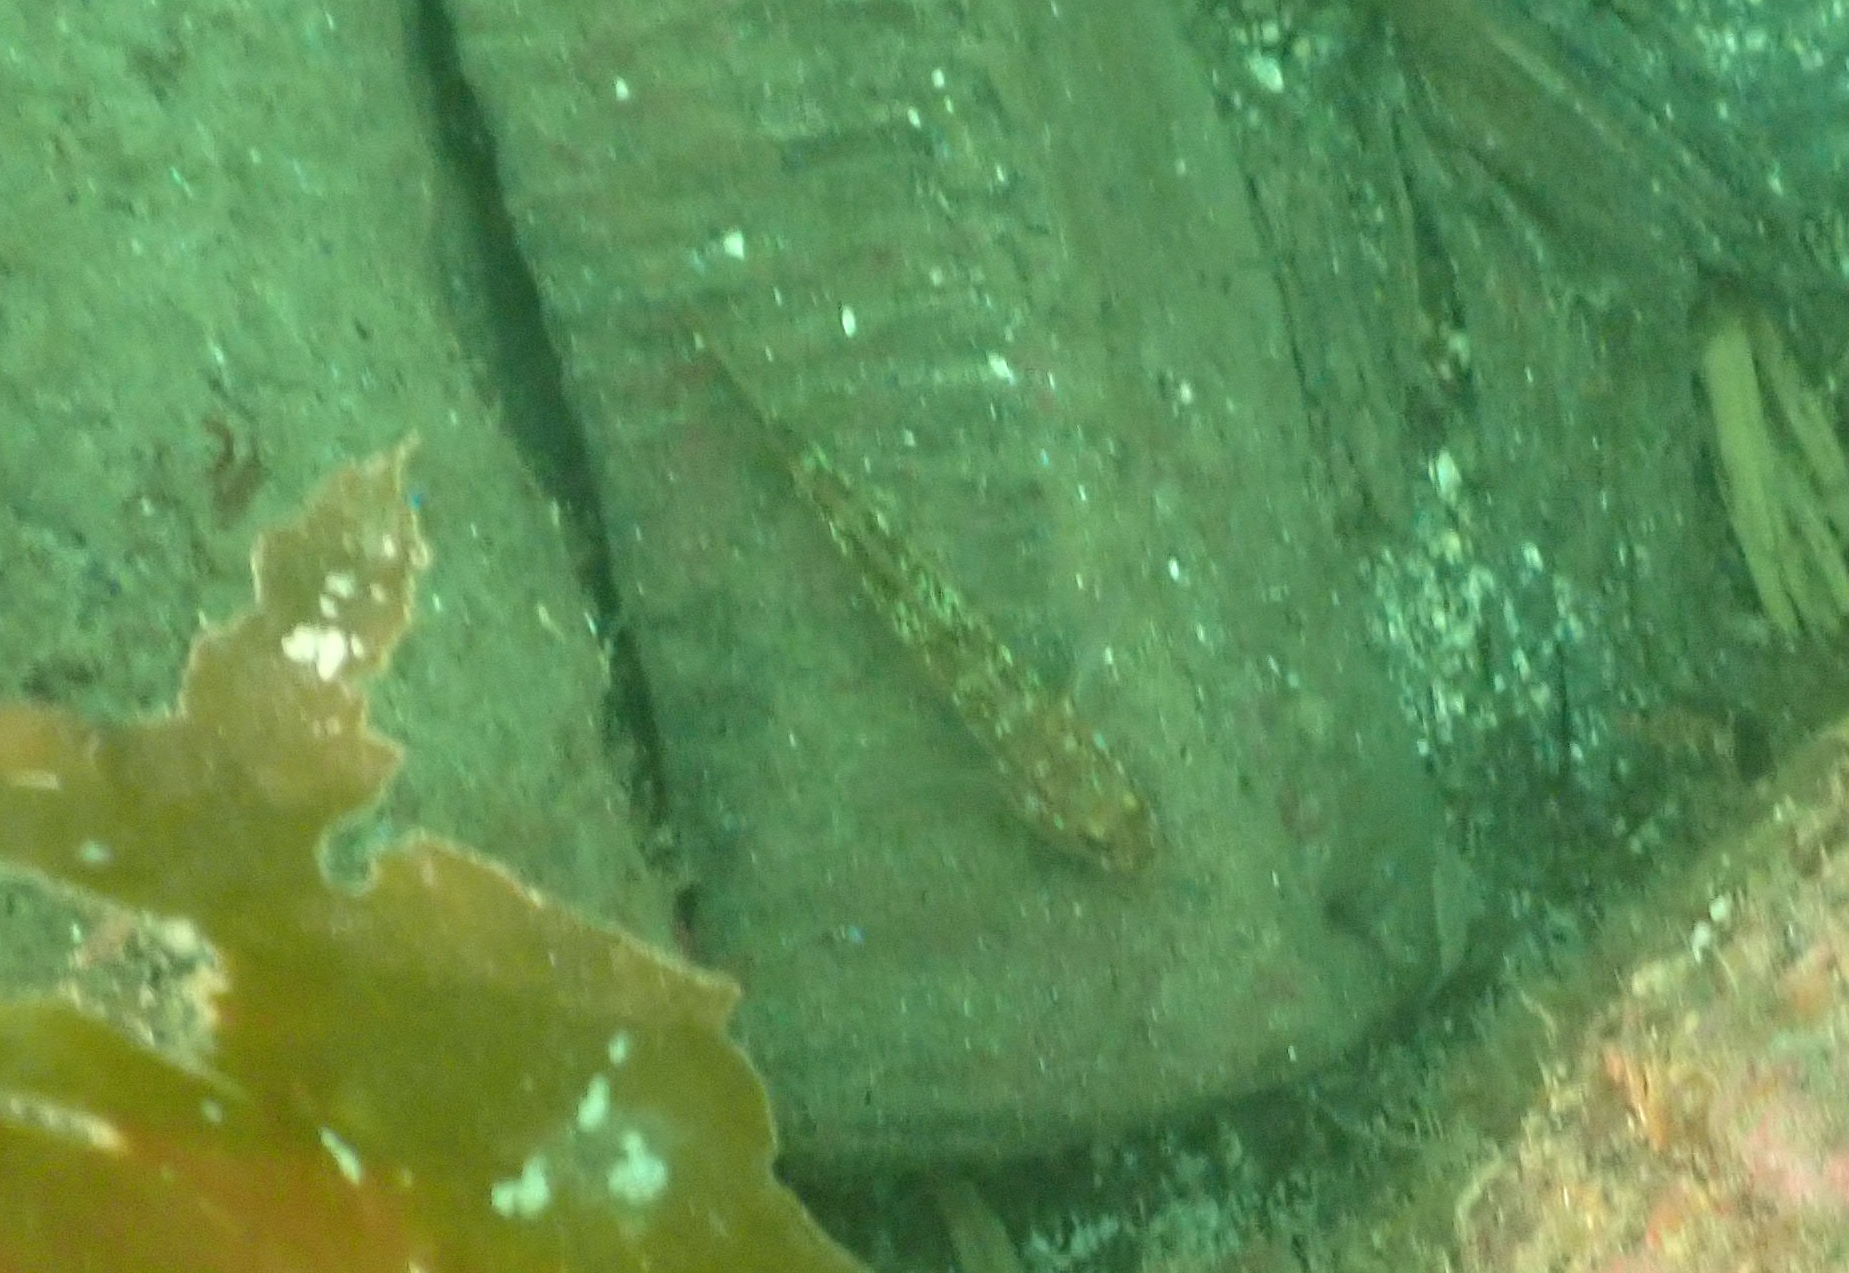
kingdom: Animalia
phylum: Chordata
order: Perciformes
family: Gobiidae
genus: Rhinogobiops
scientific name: Rhinogobiops nicholsii
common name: Blackeye goby
